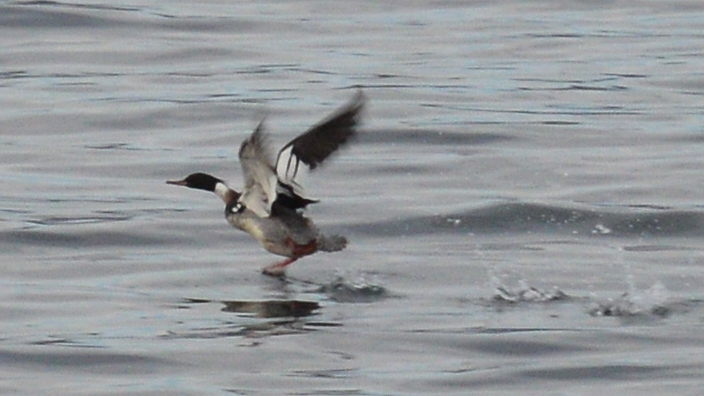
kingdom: Animalia
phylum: Chordata
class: Aves
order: Anseriformes
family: Anatidae
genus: Mergus
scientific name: Mergus serrator
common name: Red-breasted merganser
